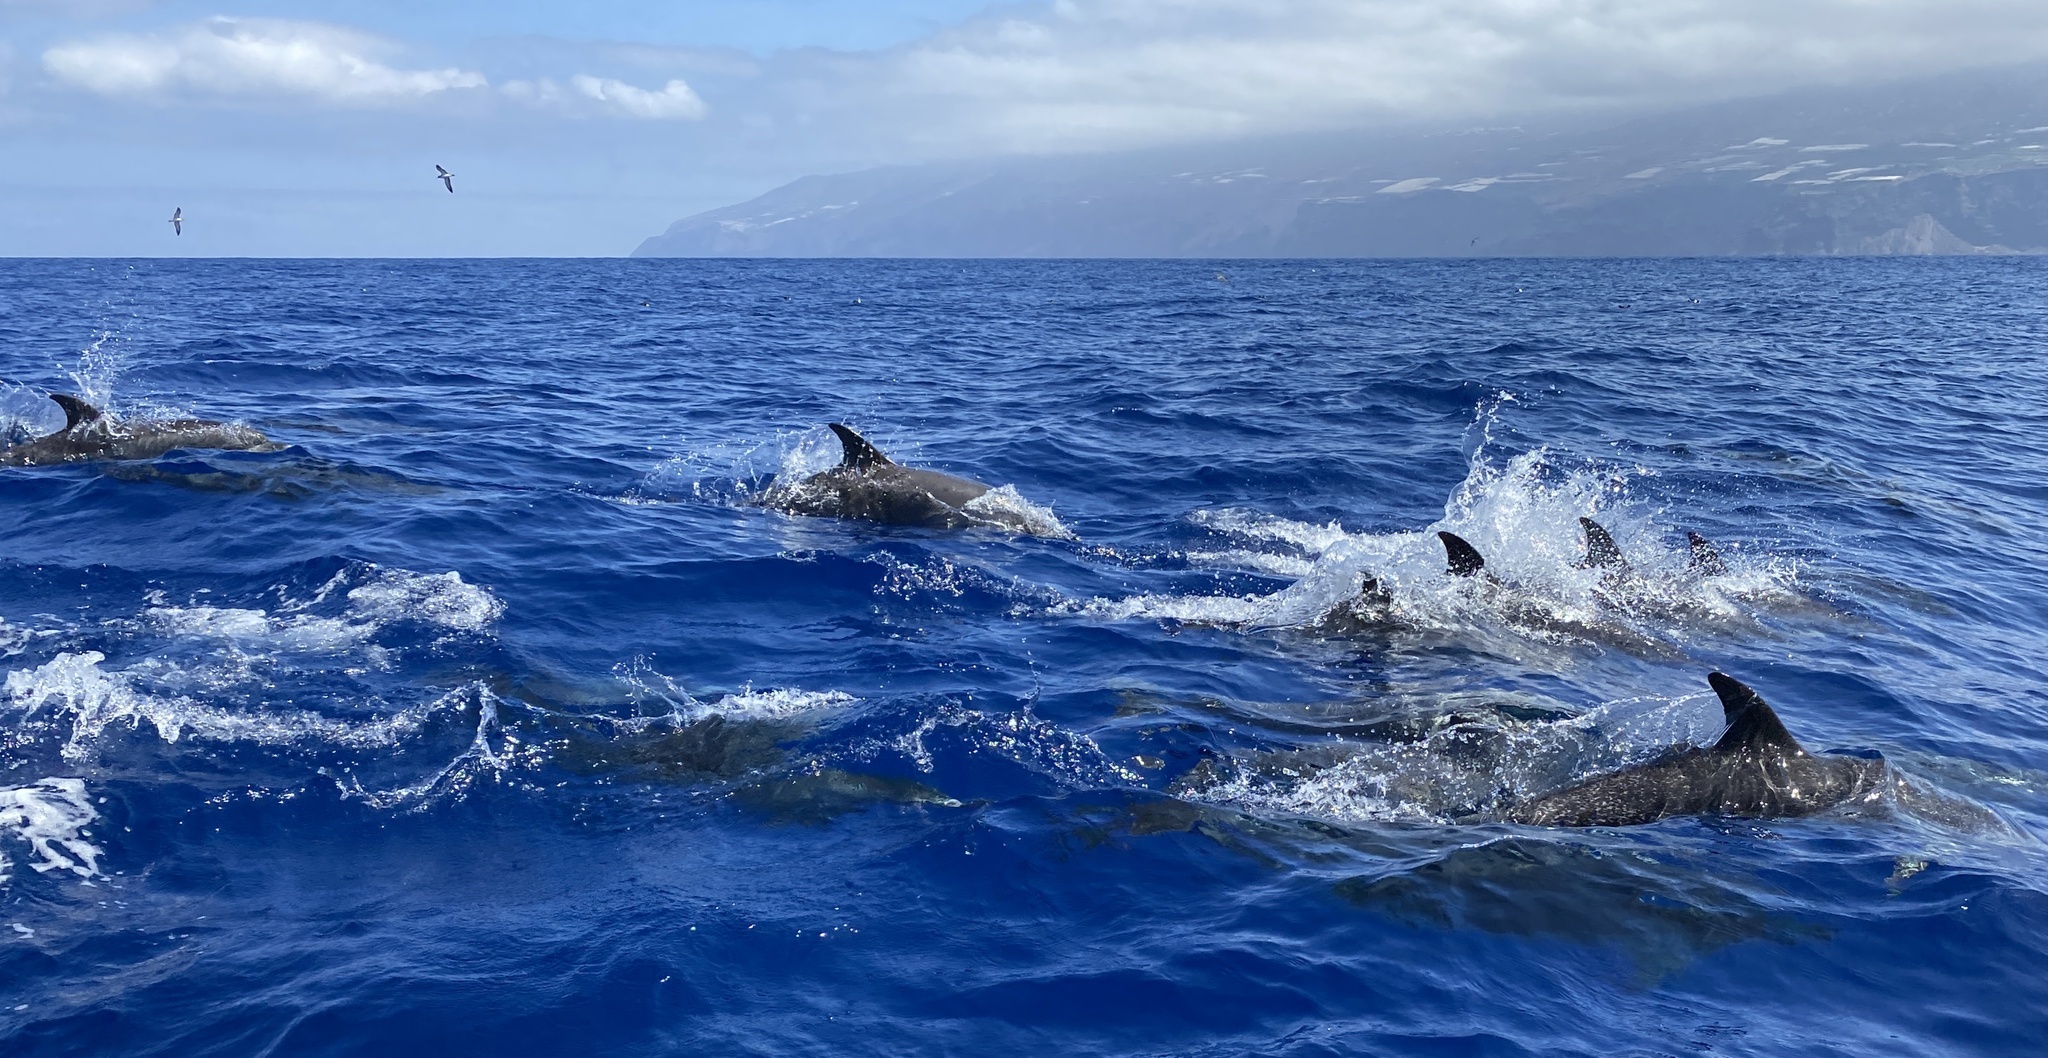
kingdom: Animalia
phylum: Chordata
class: Mammalia
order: Cetacea
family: Delphinidae
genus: Stenella
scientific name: Stenella frontalis
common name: Atlantic spotted dolphin
